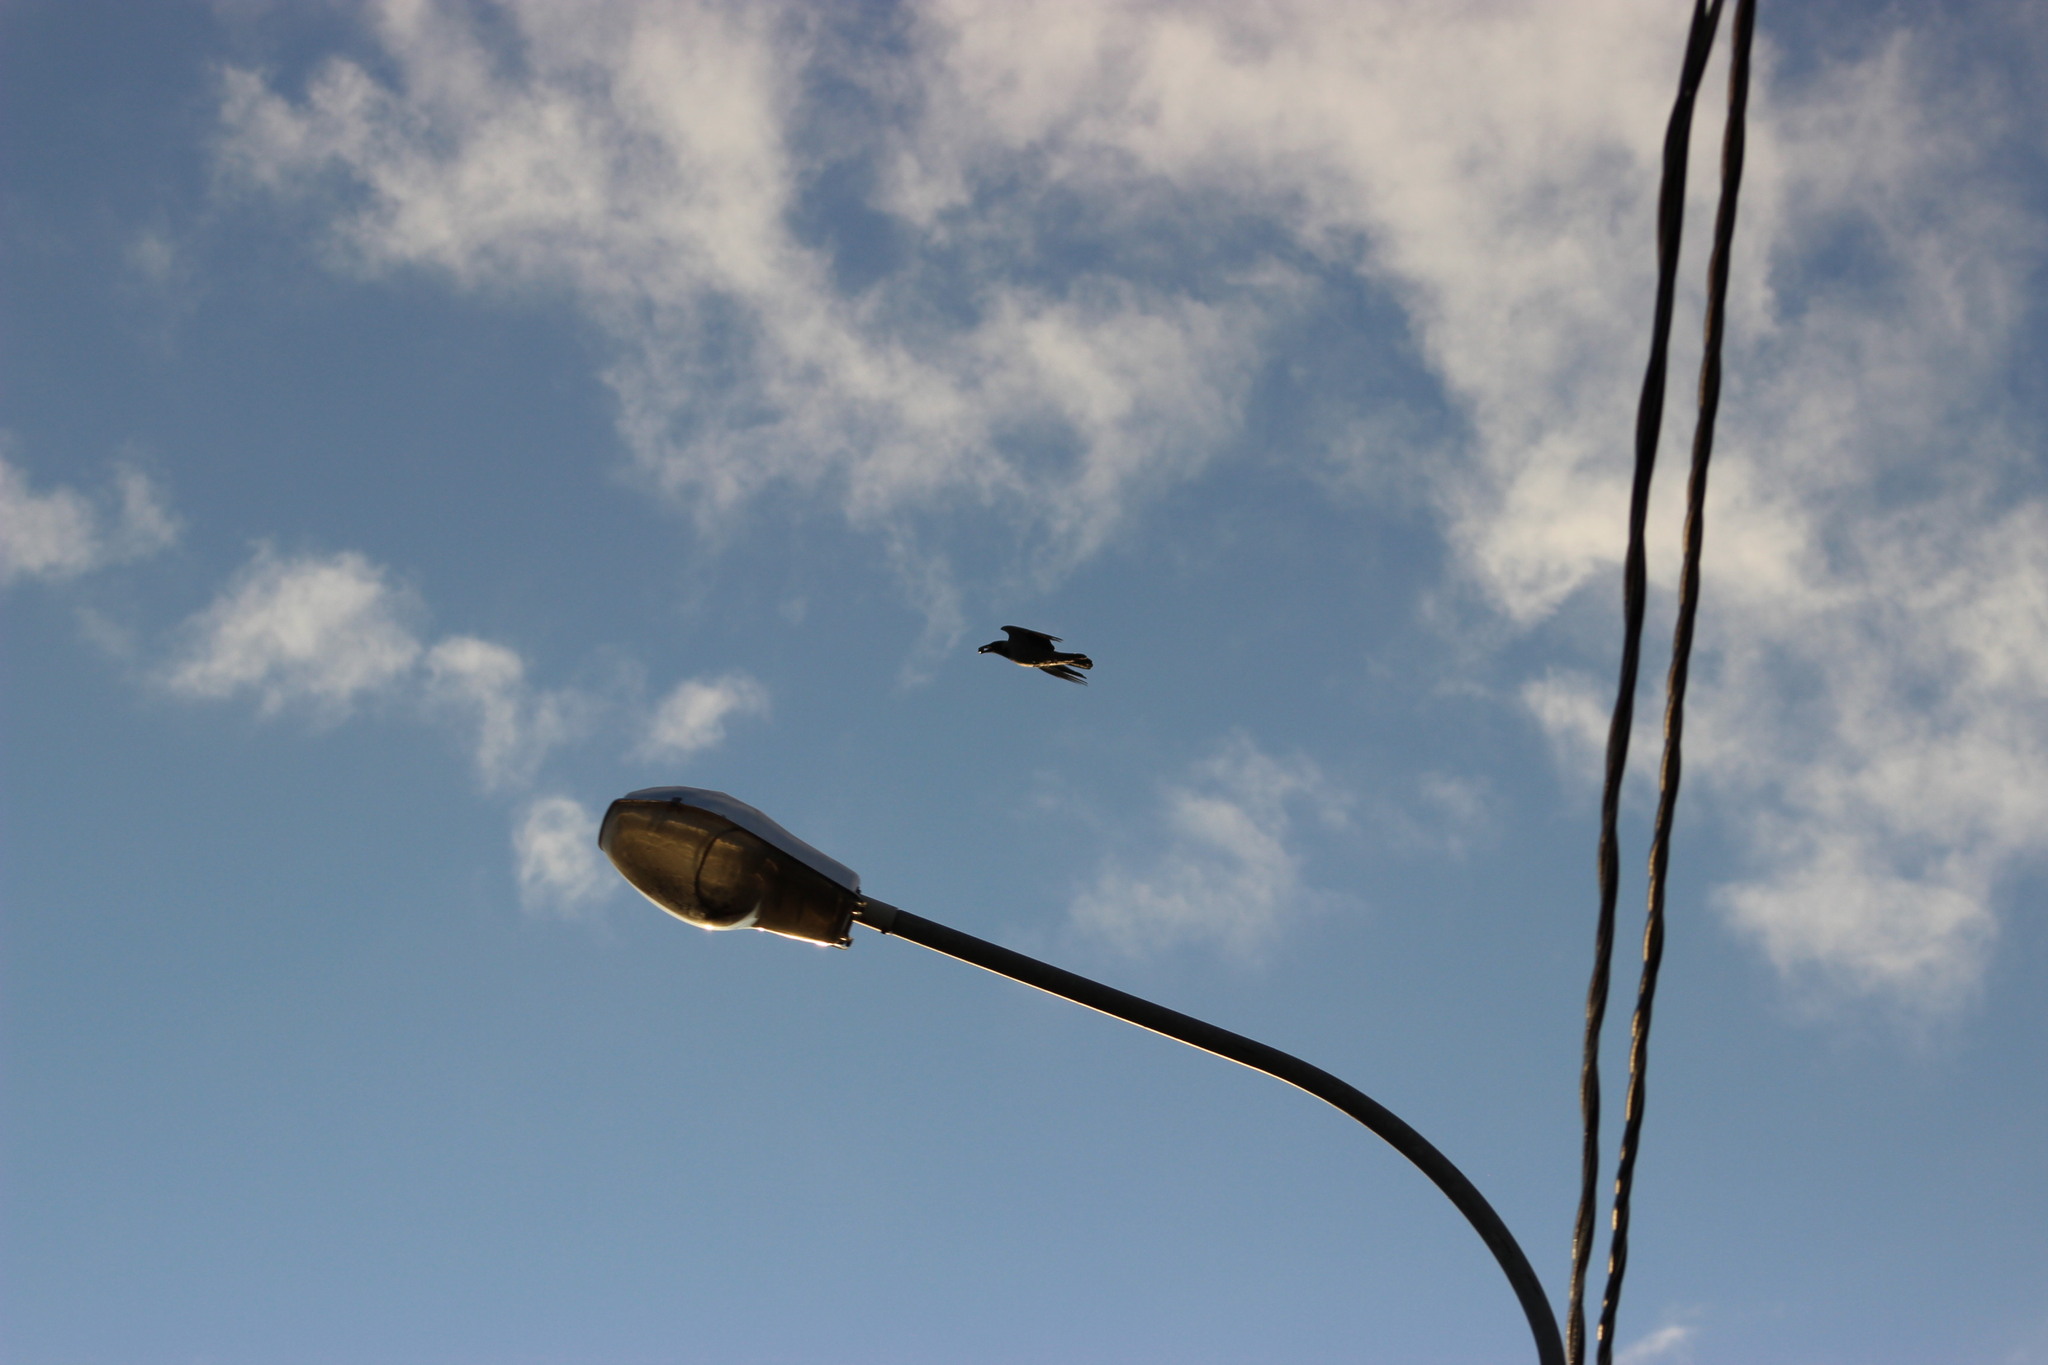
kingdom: Animalia
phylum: Chordata
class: Aves
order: Passeriformes
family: Corvidae
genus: Corvus
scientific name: Corvus corax
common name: Common raven
